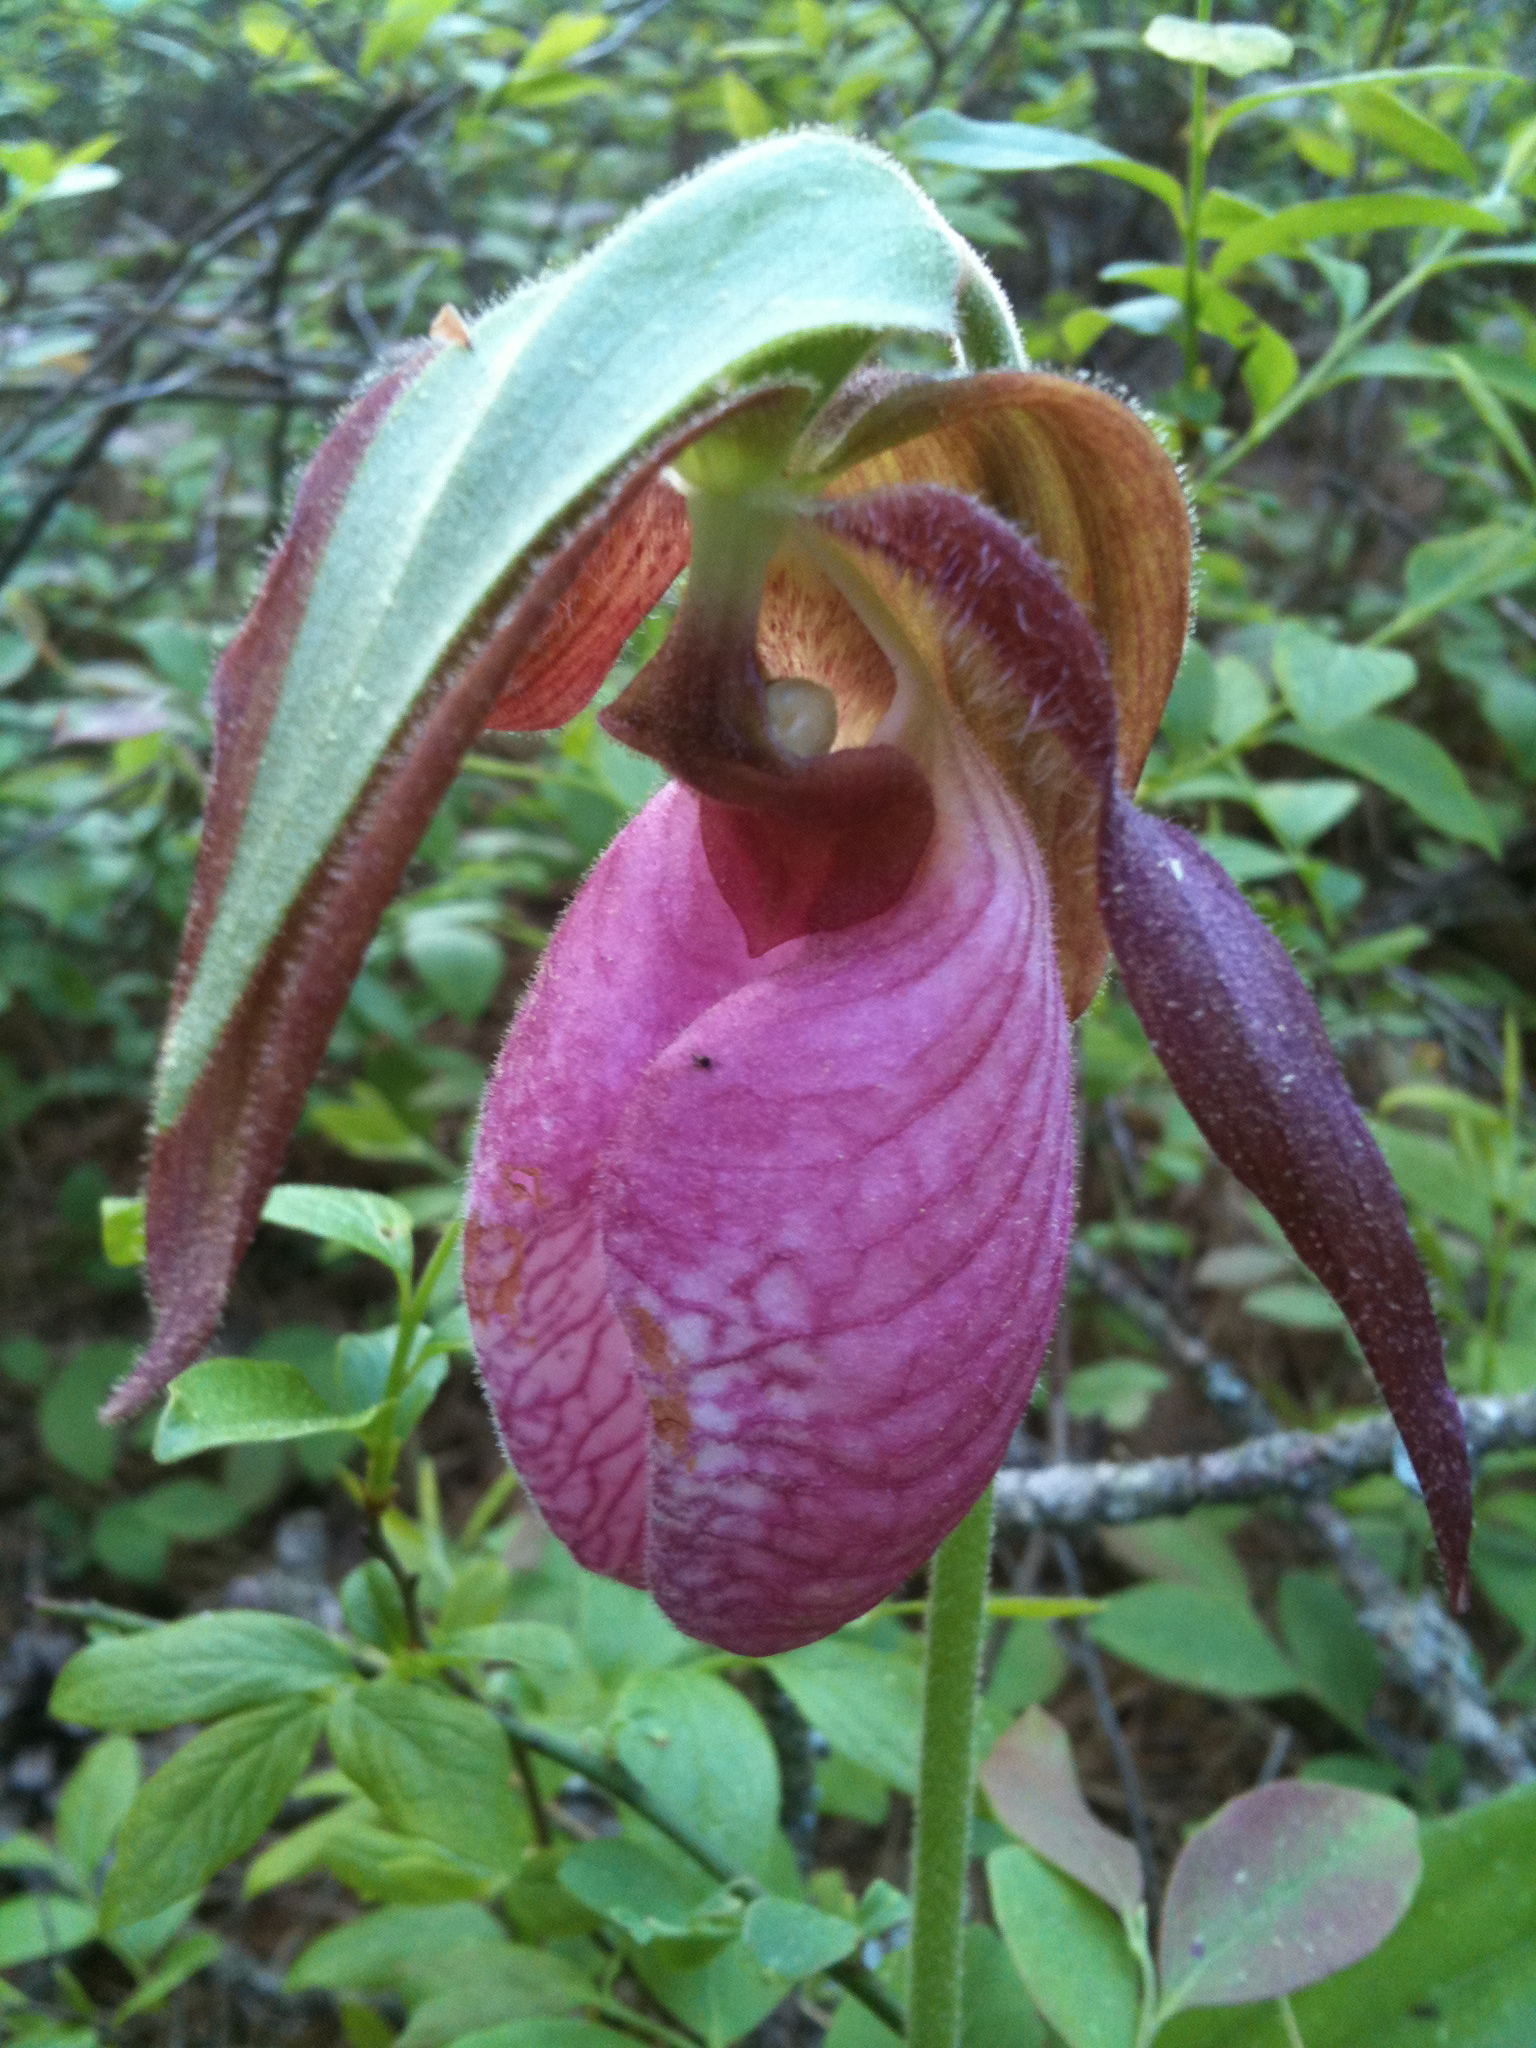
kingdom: Plantae
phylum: Tracheophyta
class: Liliopsida
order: Asparagales
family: Orchidaceae
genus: Cypripedium
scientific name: Cypripedium acaule
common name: Pink lady's-slipper
